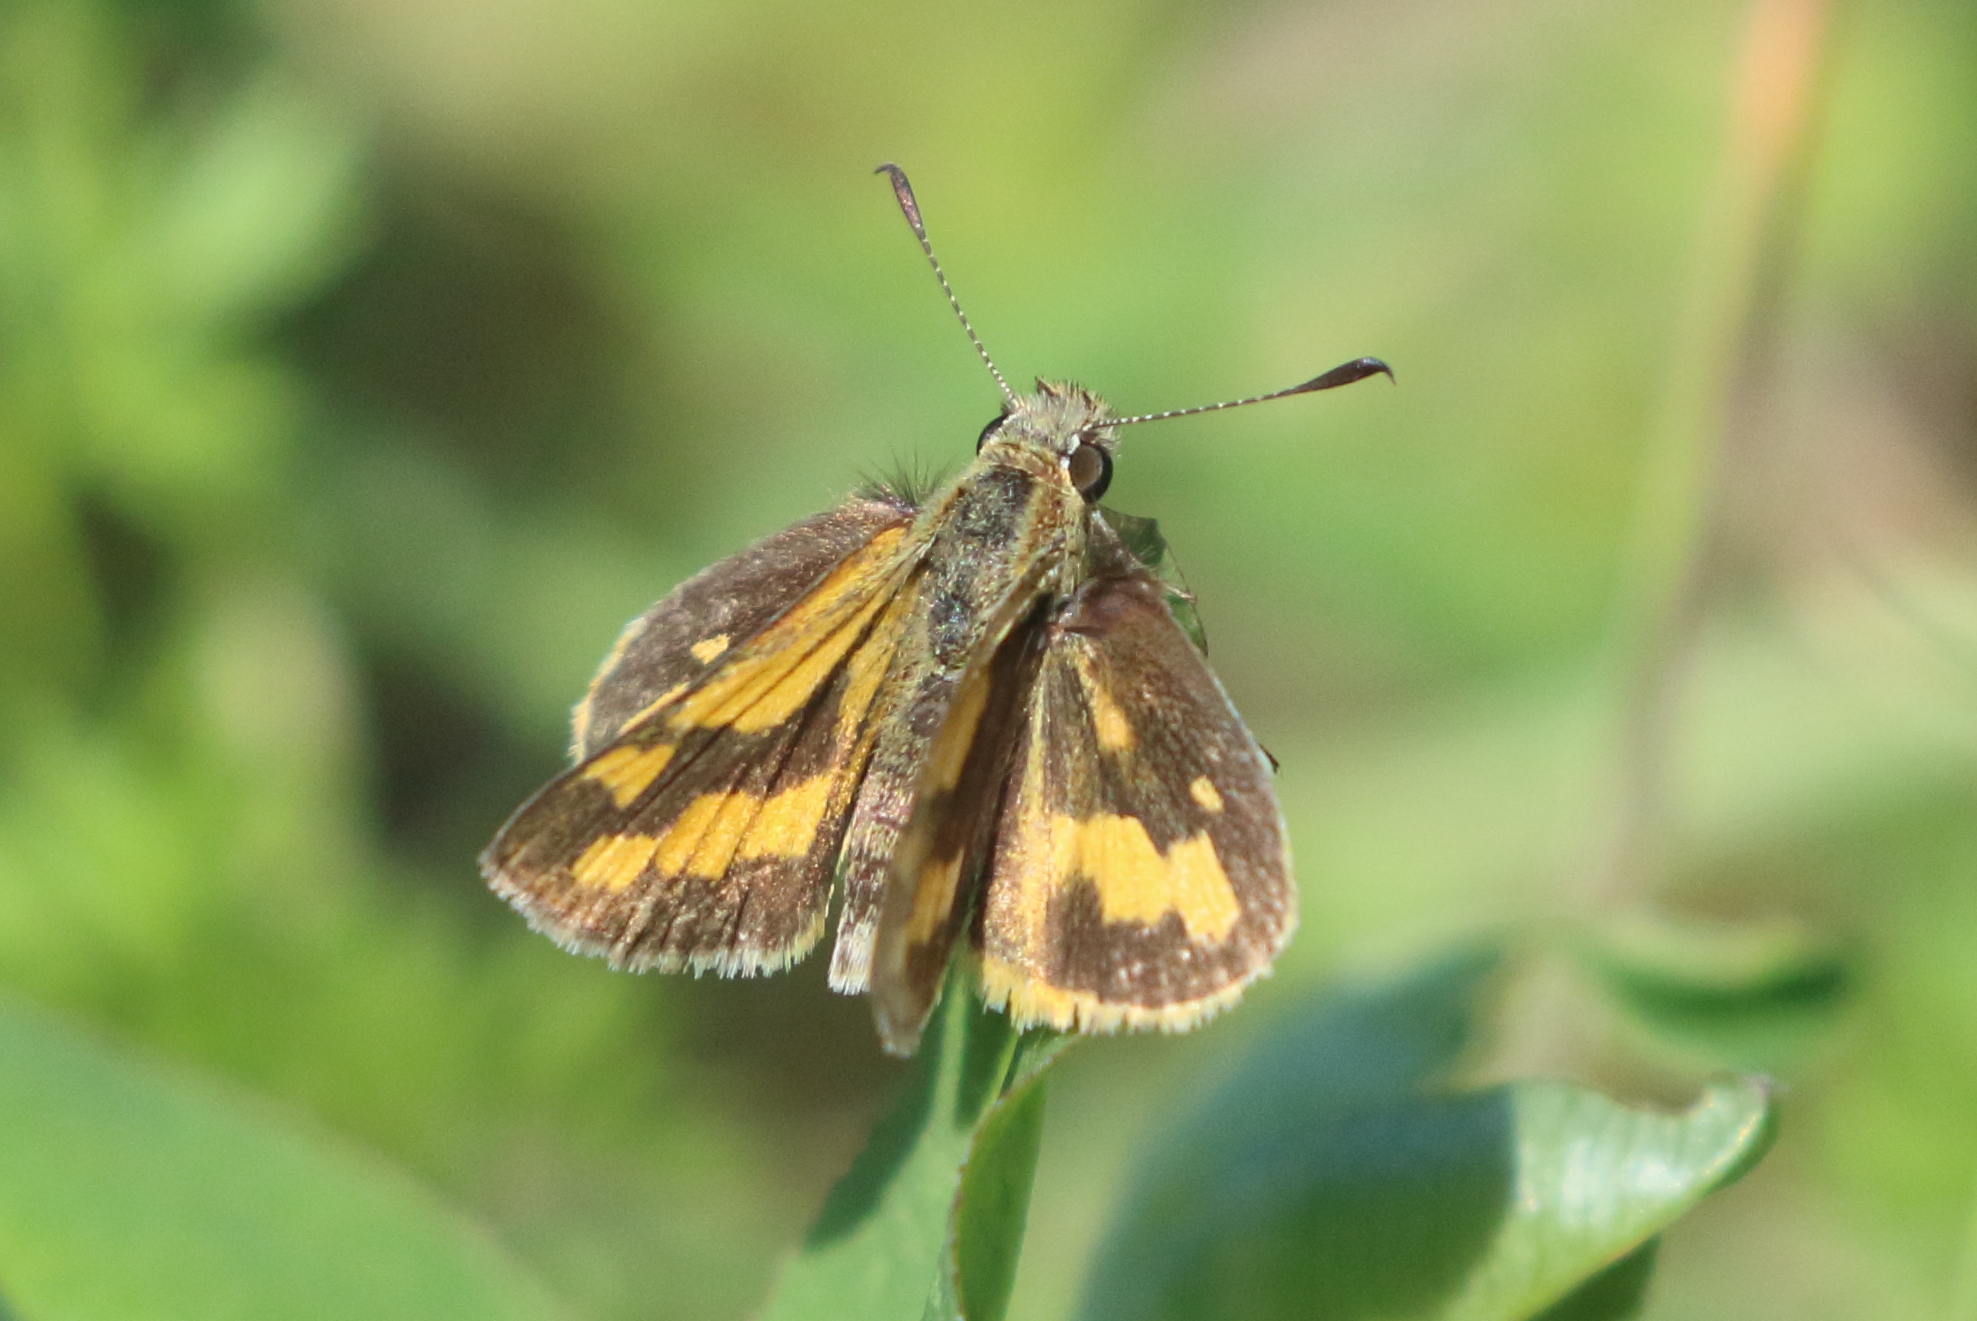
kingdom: Animalia
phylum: Arthropoda
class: Insecta
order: Lepidoptera
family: Hesperiidae
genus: Ocybadistes
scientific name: Ocybadistes walkeri
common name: Yellow-banded dart
